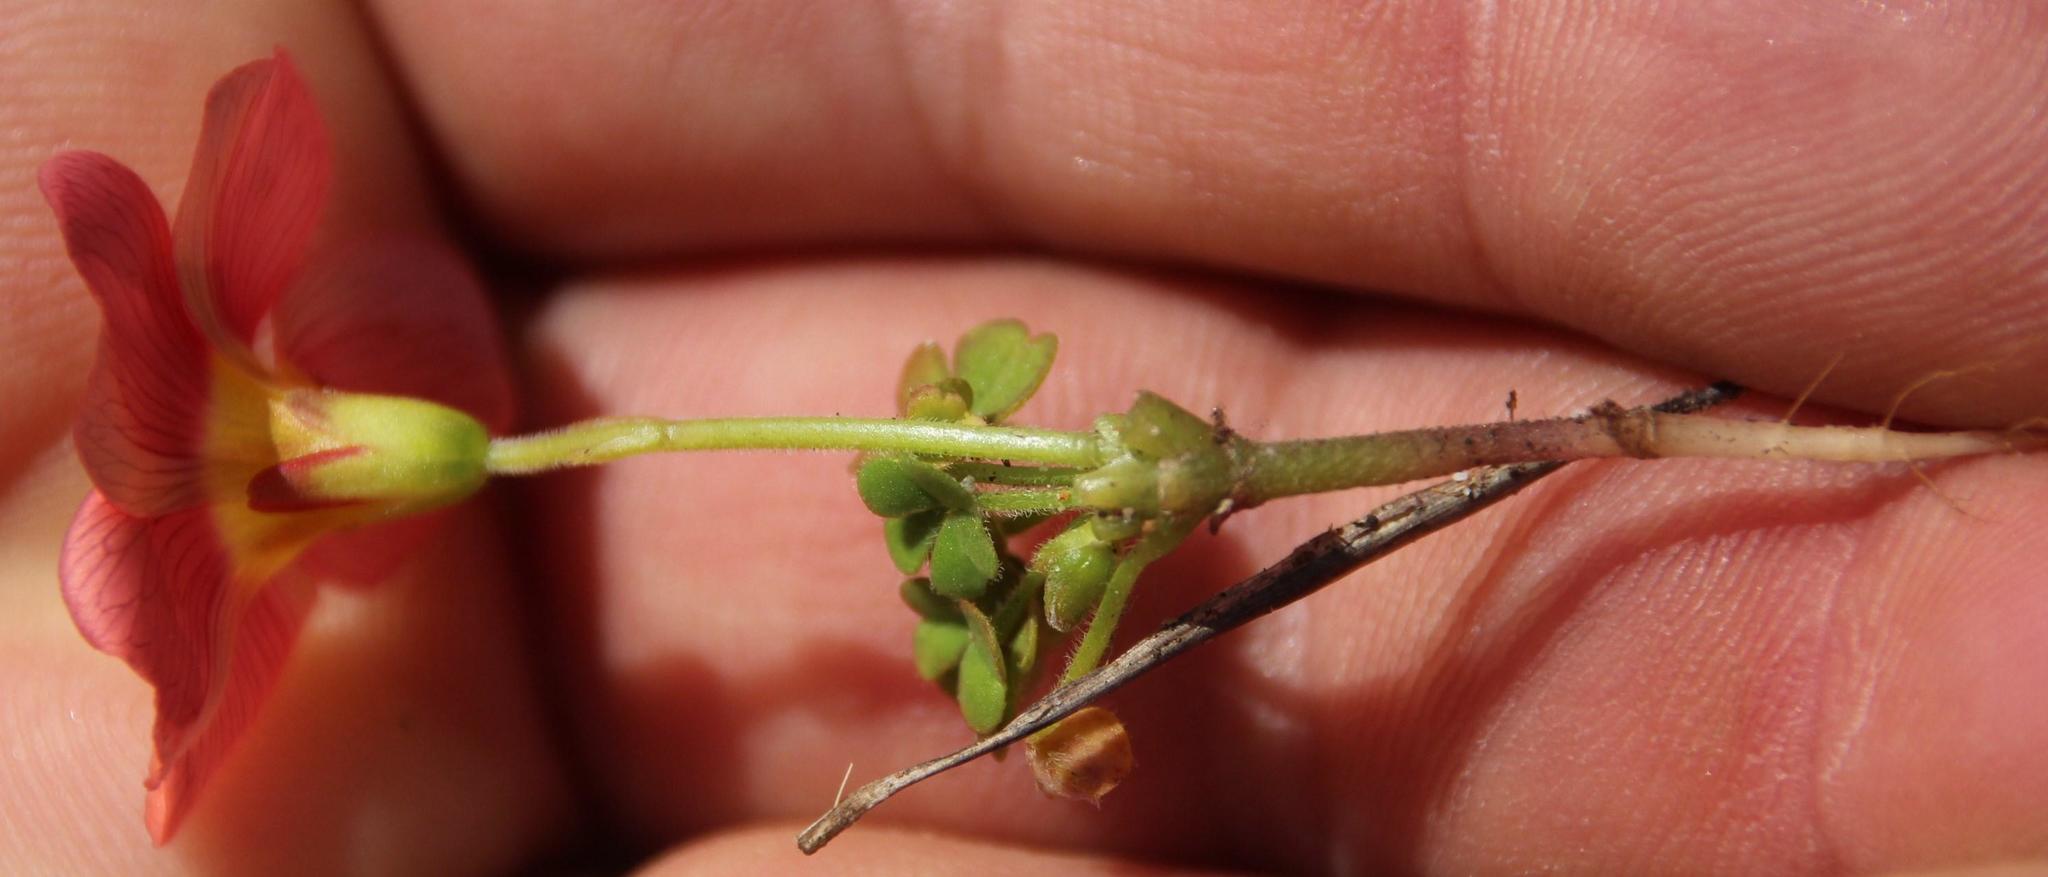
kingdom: Plantae
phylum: Tracheophyta
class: Magnoliopsida
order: Oxalidales
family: Oxalidaceae
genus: Oxalis
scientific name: Oxalis obtusa
